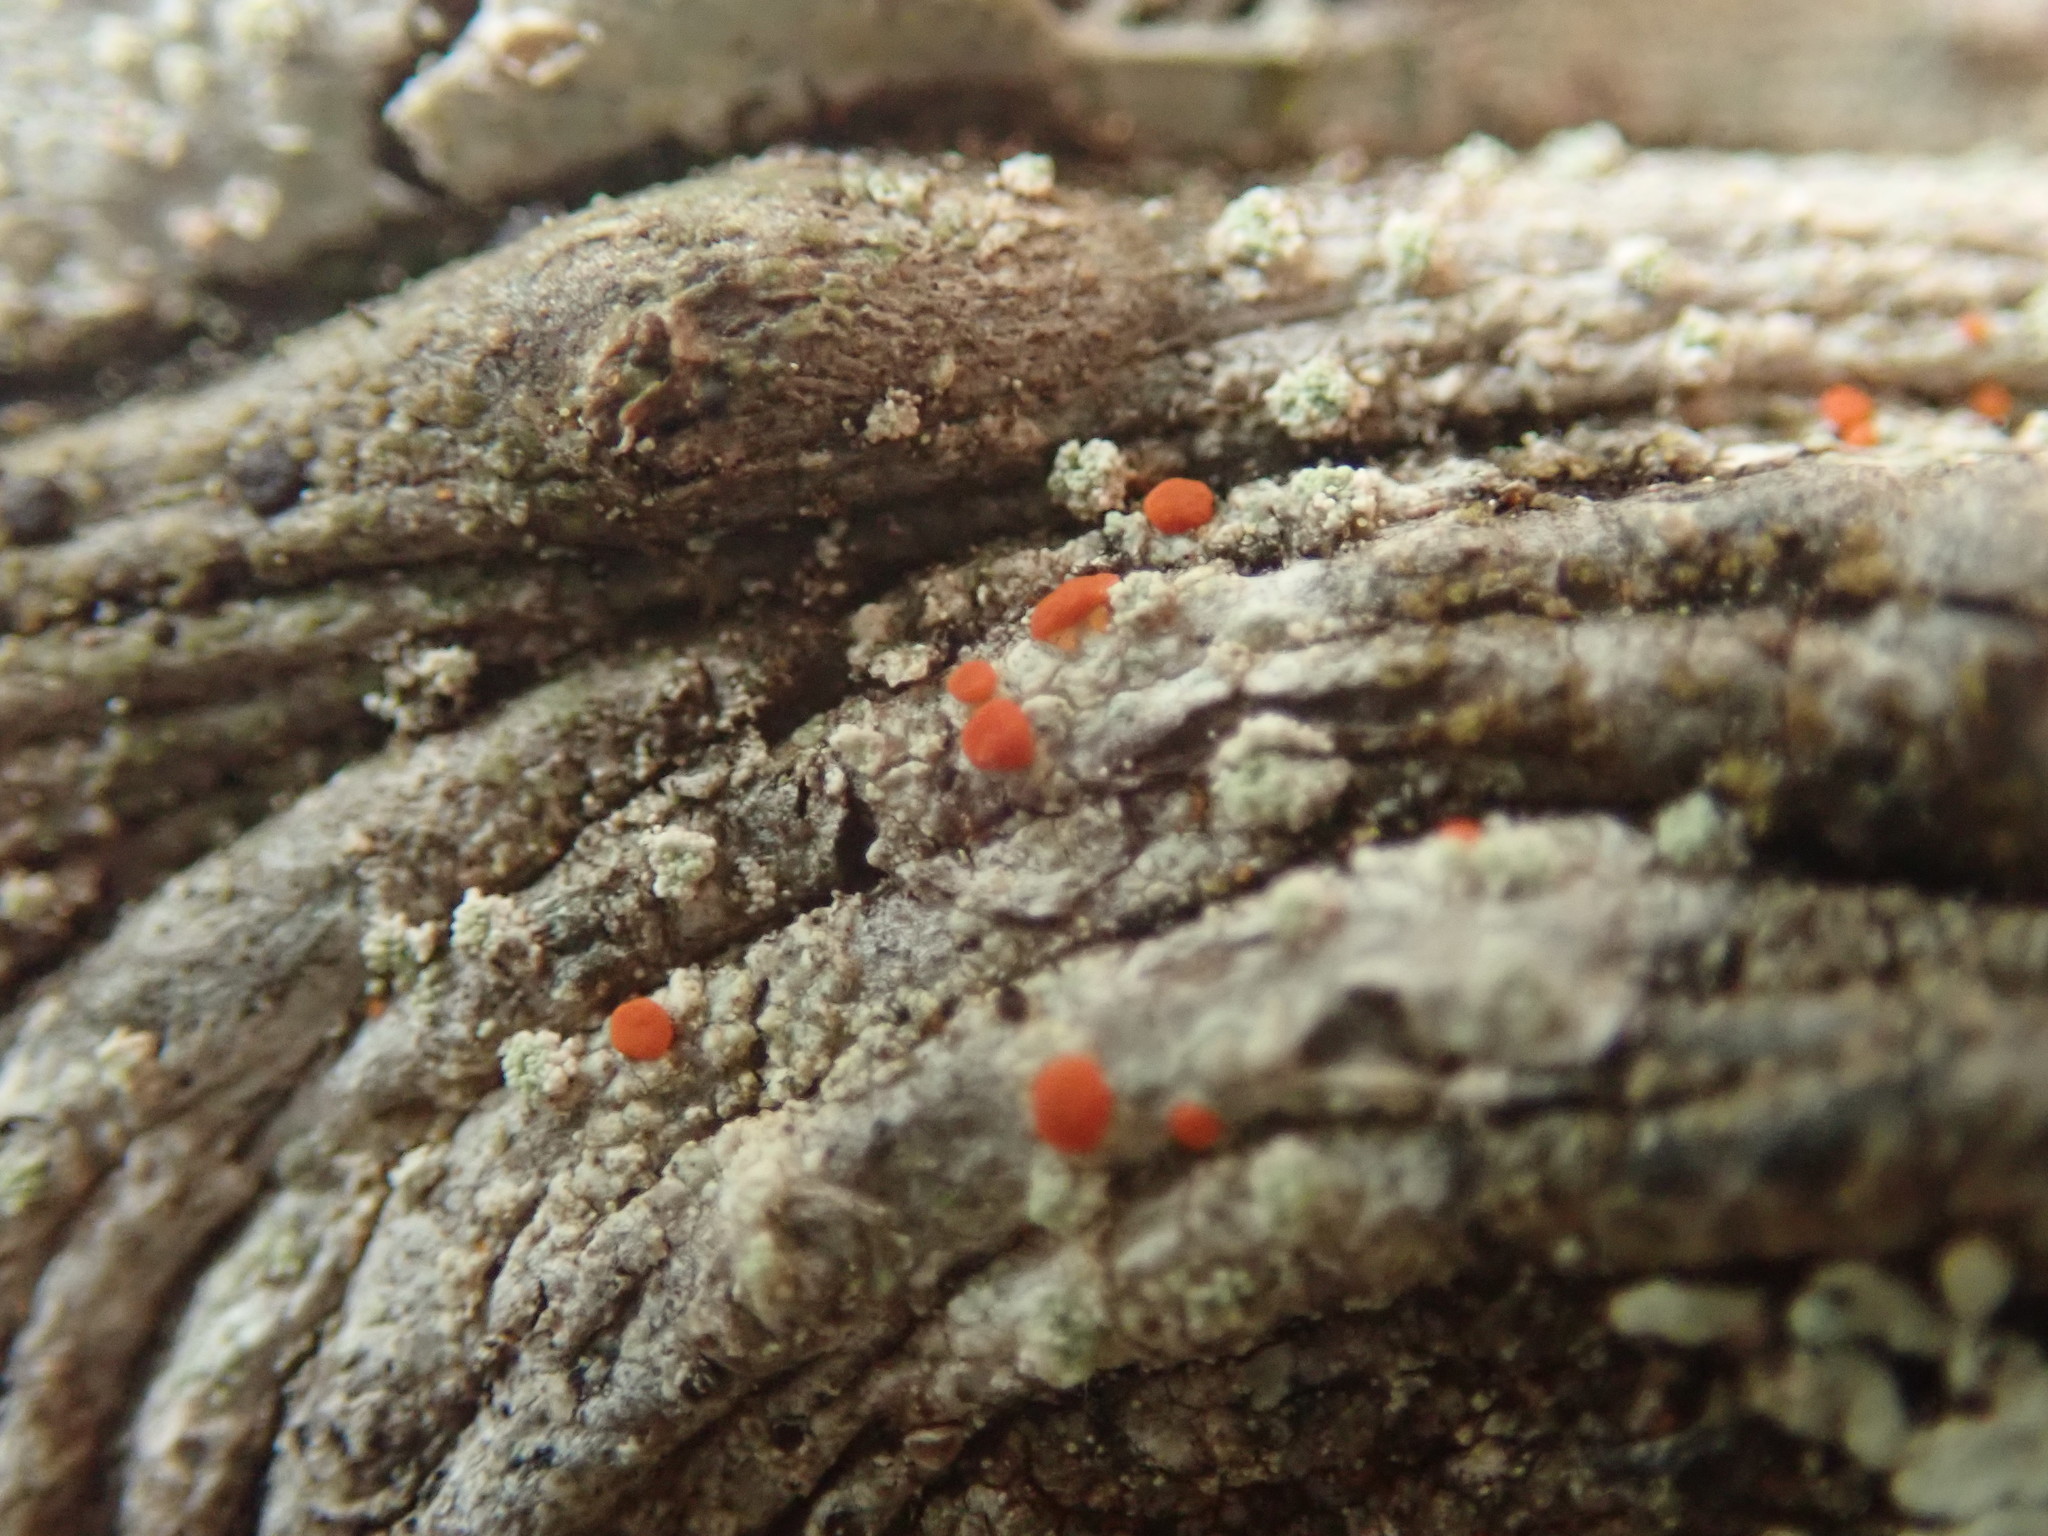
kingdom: Fungi
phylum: Ascomycota
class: Lecanoromycetes
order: Lecanorales
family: Ramboldiaceae
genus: Ramboldia
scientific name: Ramboldia cinnabarina
